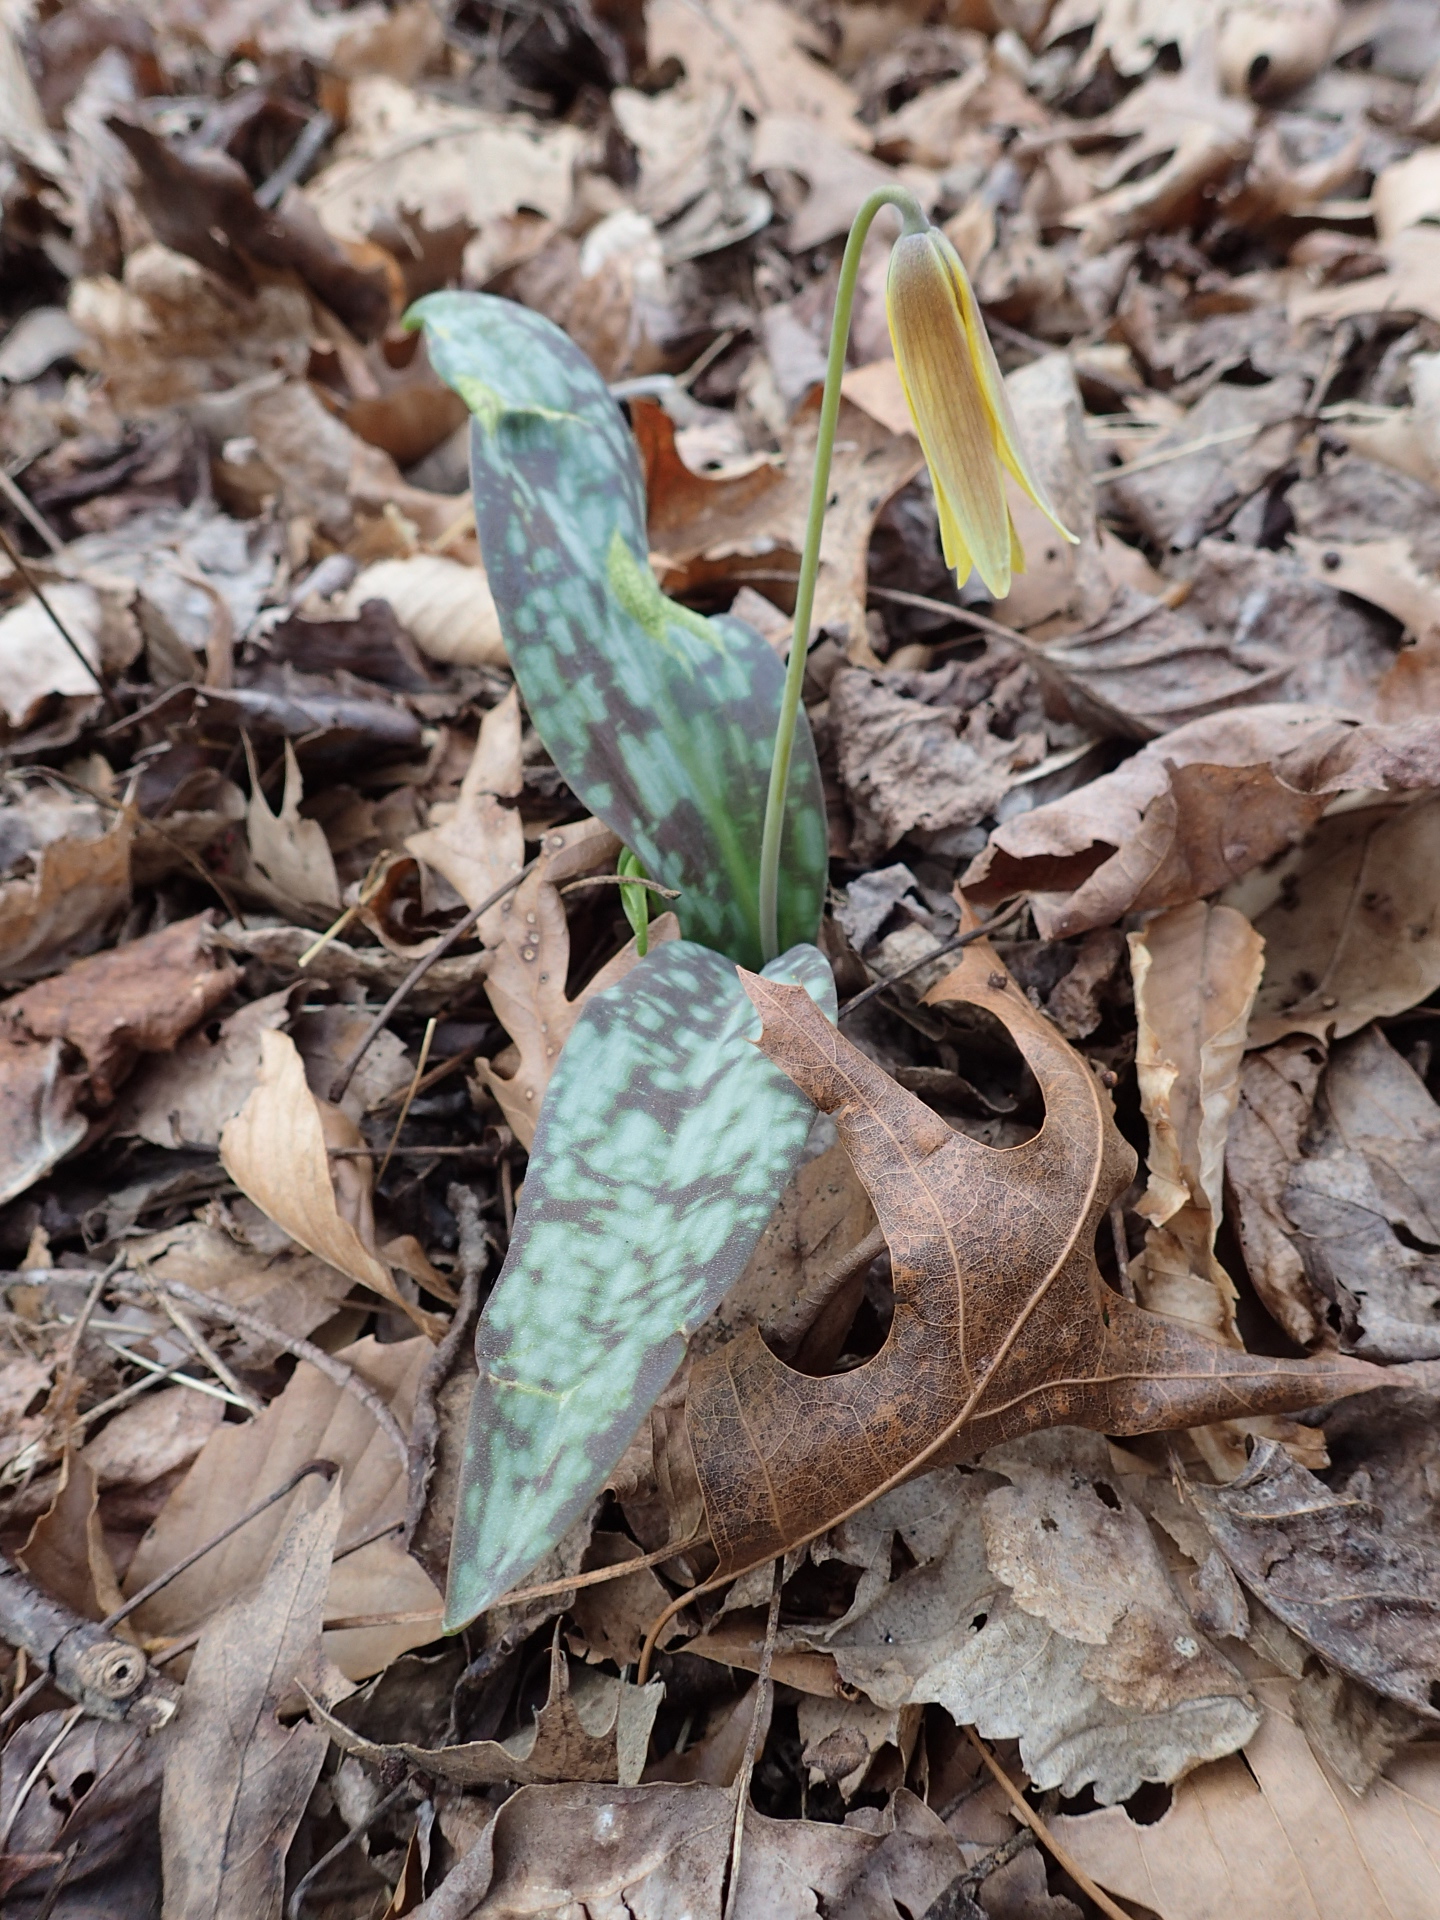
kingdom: Plantae
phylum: Tracheophyta
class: Liliopsida
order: Liliales
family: Liliaceae
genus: Erythronium
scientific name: Erythronium americanum
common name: Yellow adder's-tongue
